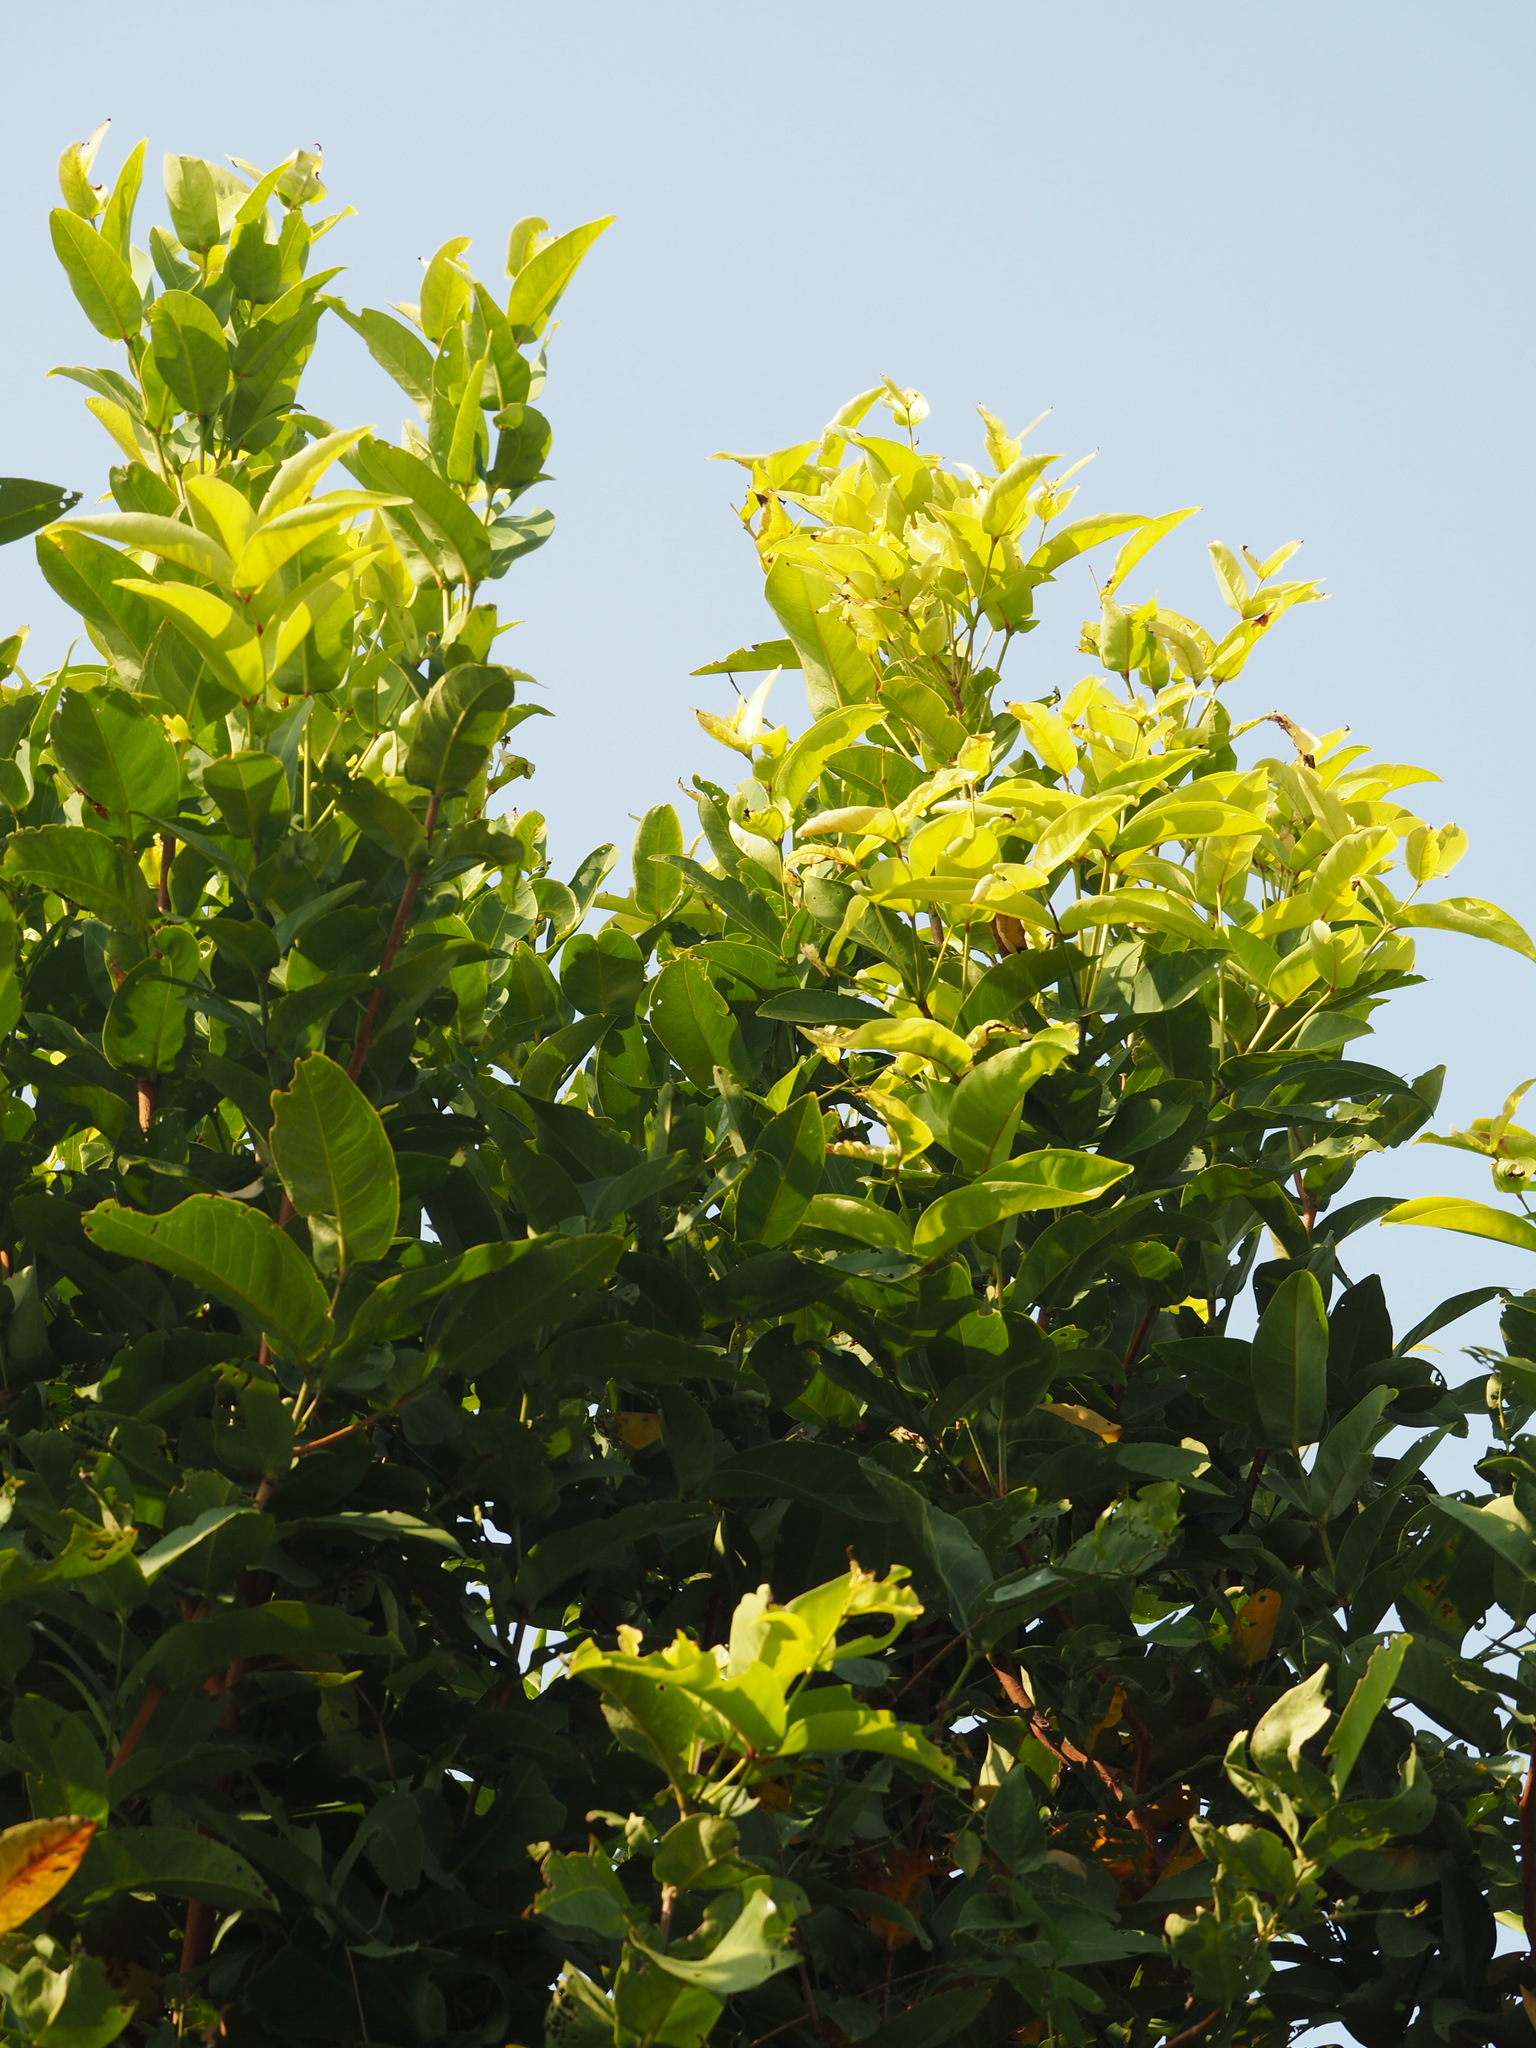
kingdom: Plantae
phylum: Tracheophyta
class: Magnoliopsida
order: Myrtales
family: Myrtaceae
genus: Syzygium
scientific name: Syzygium samarangense
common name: Semarang rose-apple
